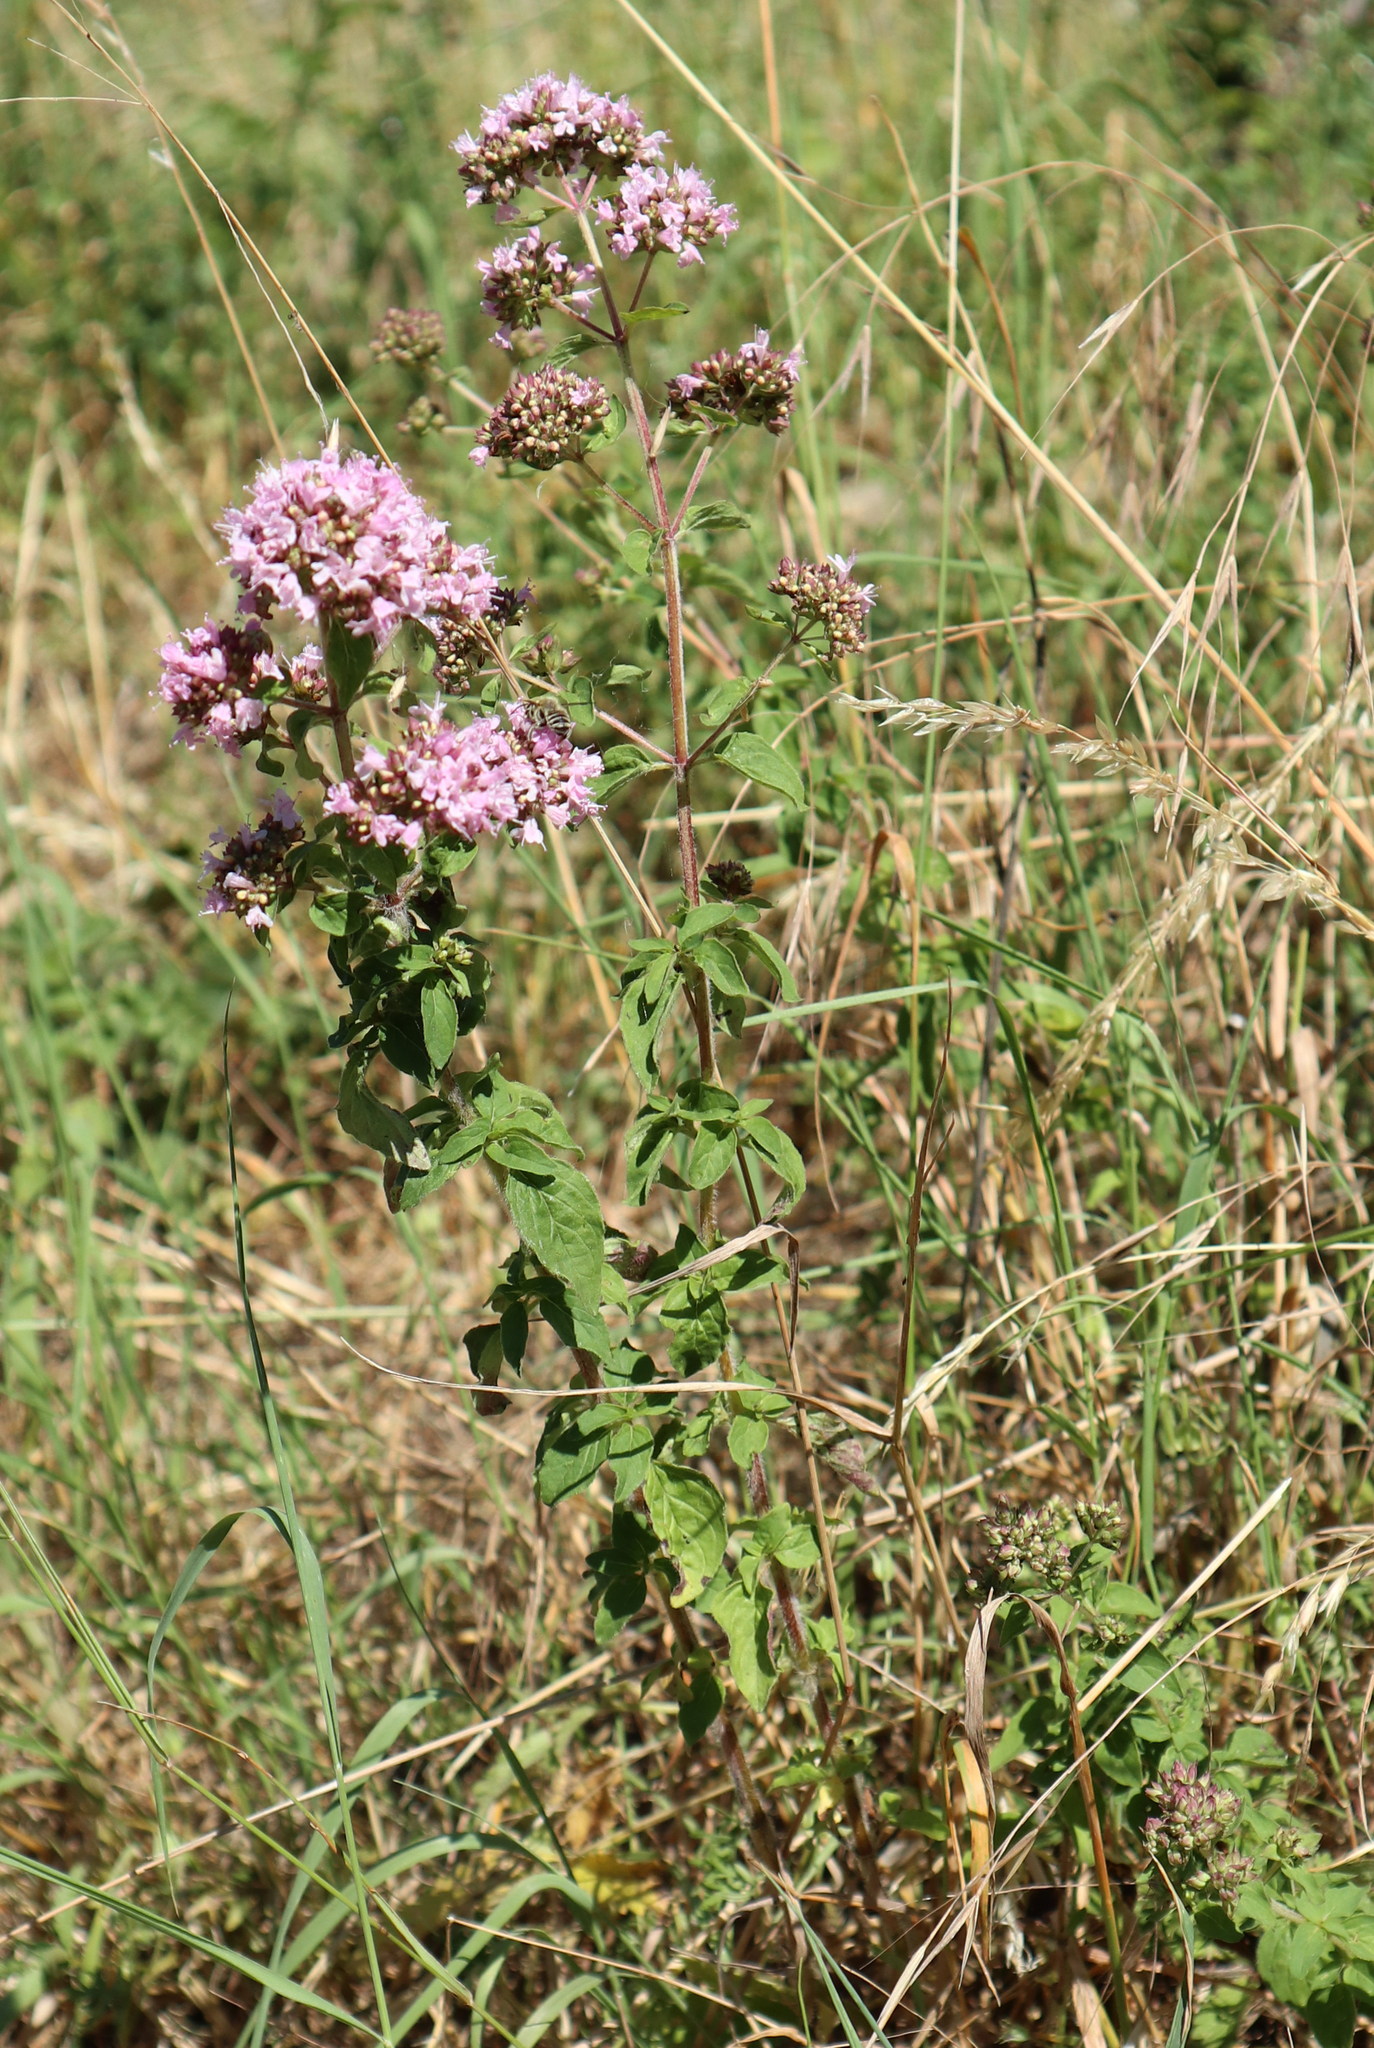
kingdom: Plantae
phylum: Tracheophyta
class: Magnoliopsida
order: Lamiales
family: Lamiaceae
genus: Origanum
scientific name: Origanum vulgare
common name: Wild marjoram
